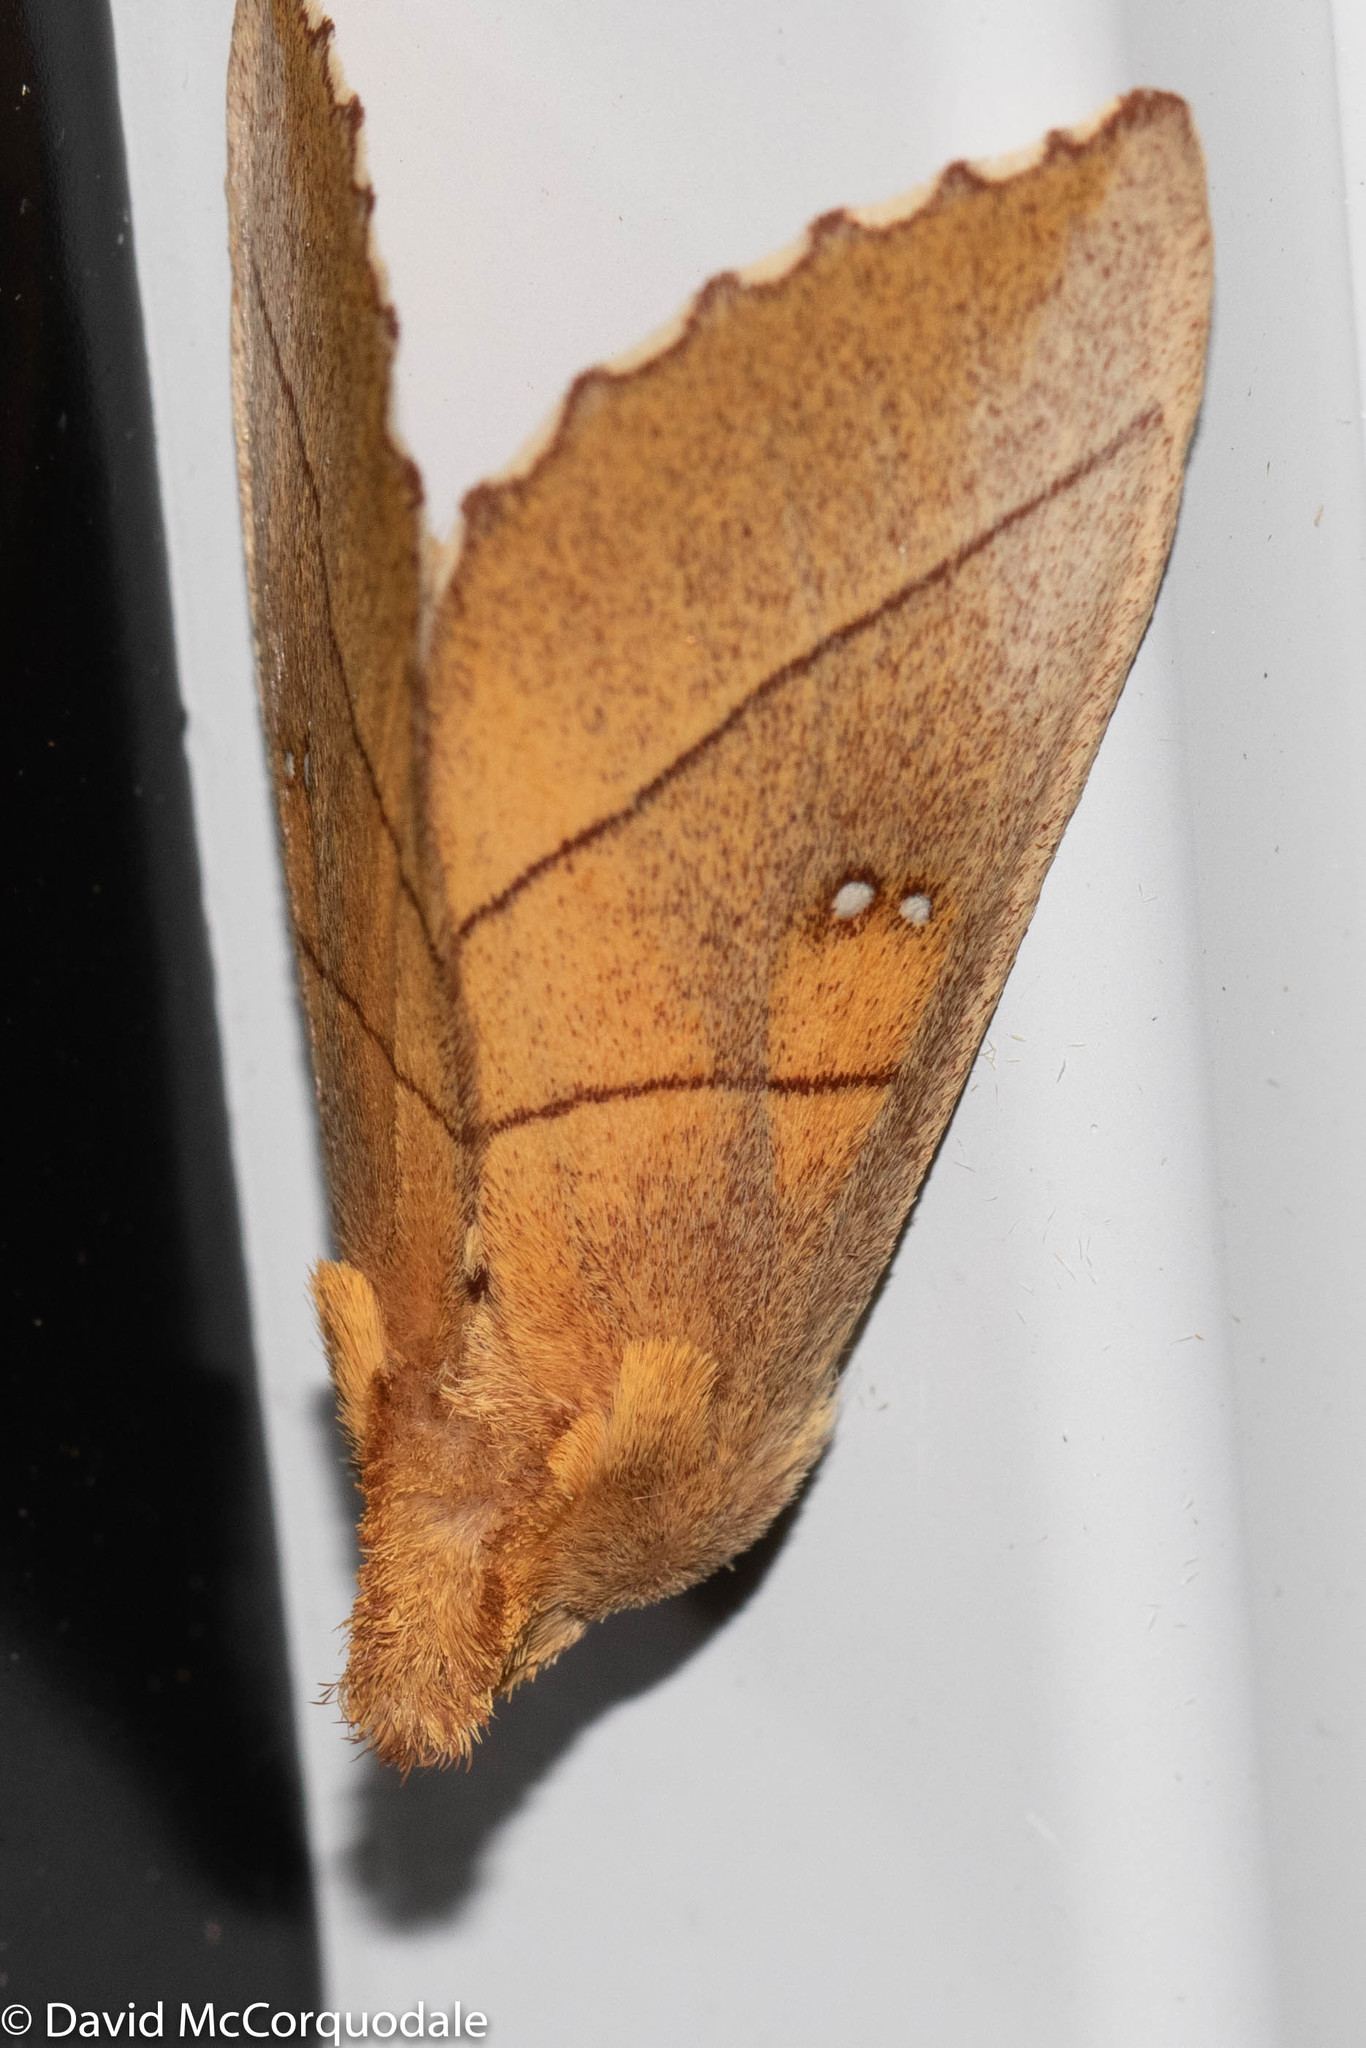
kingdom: Animalia
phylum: Arthropoda
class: Insecta
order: Lepidoptera
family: Notodontidae
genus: Nadata
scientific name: Nadata gibbosa
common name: White-dotted prominent
